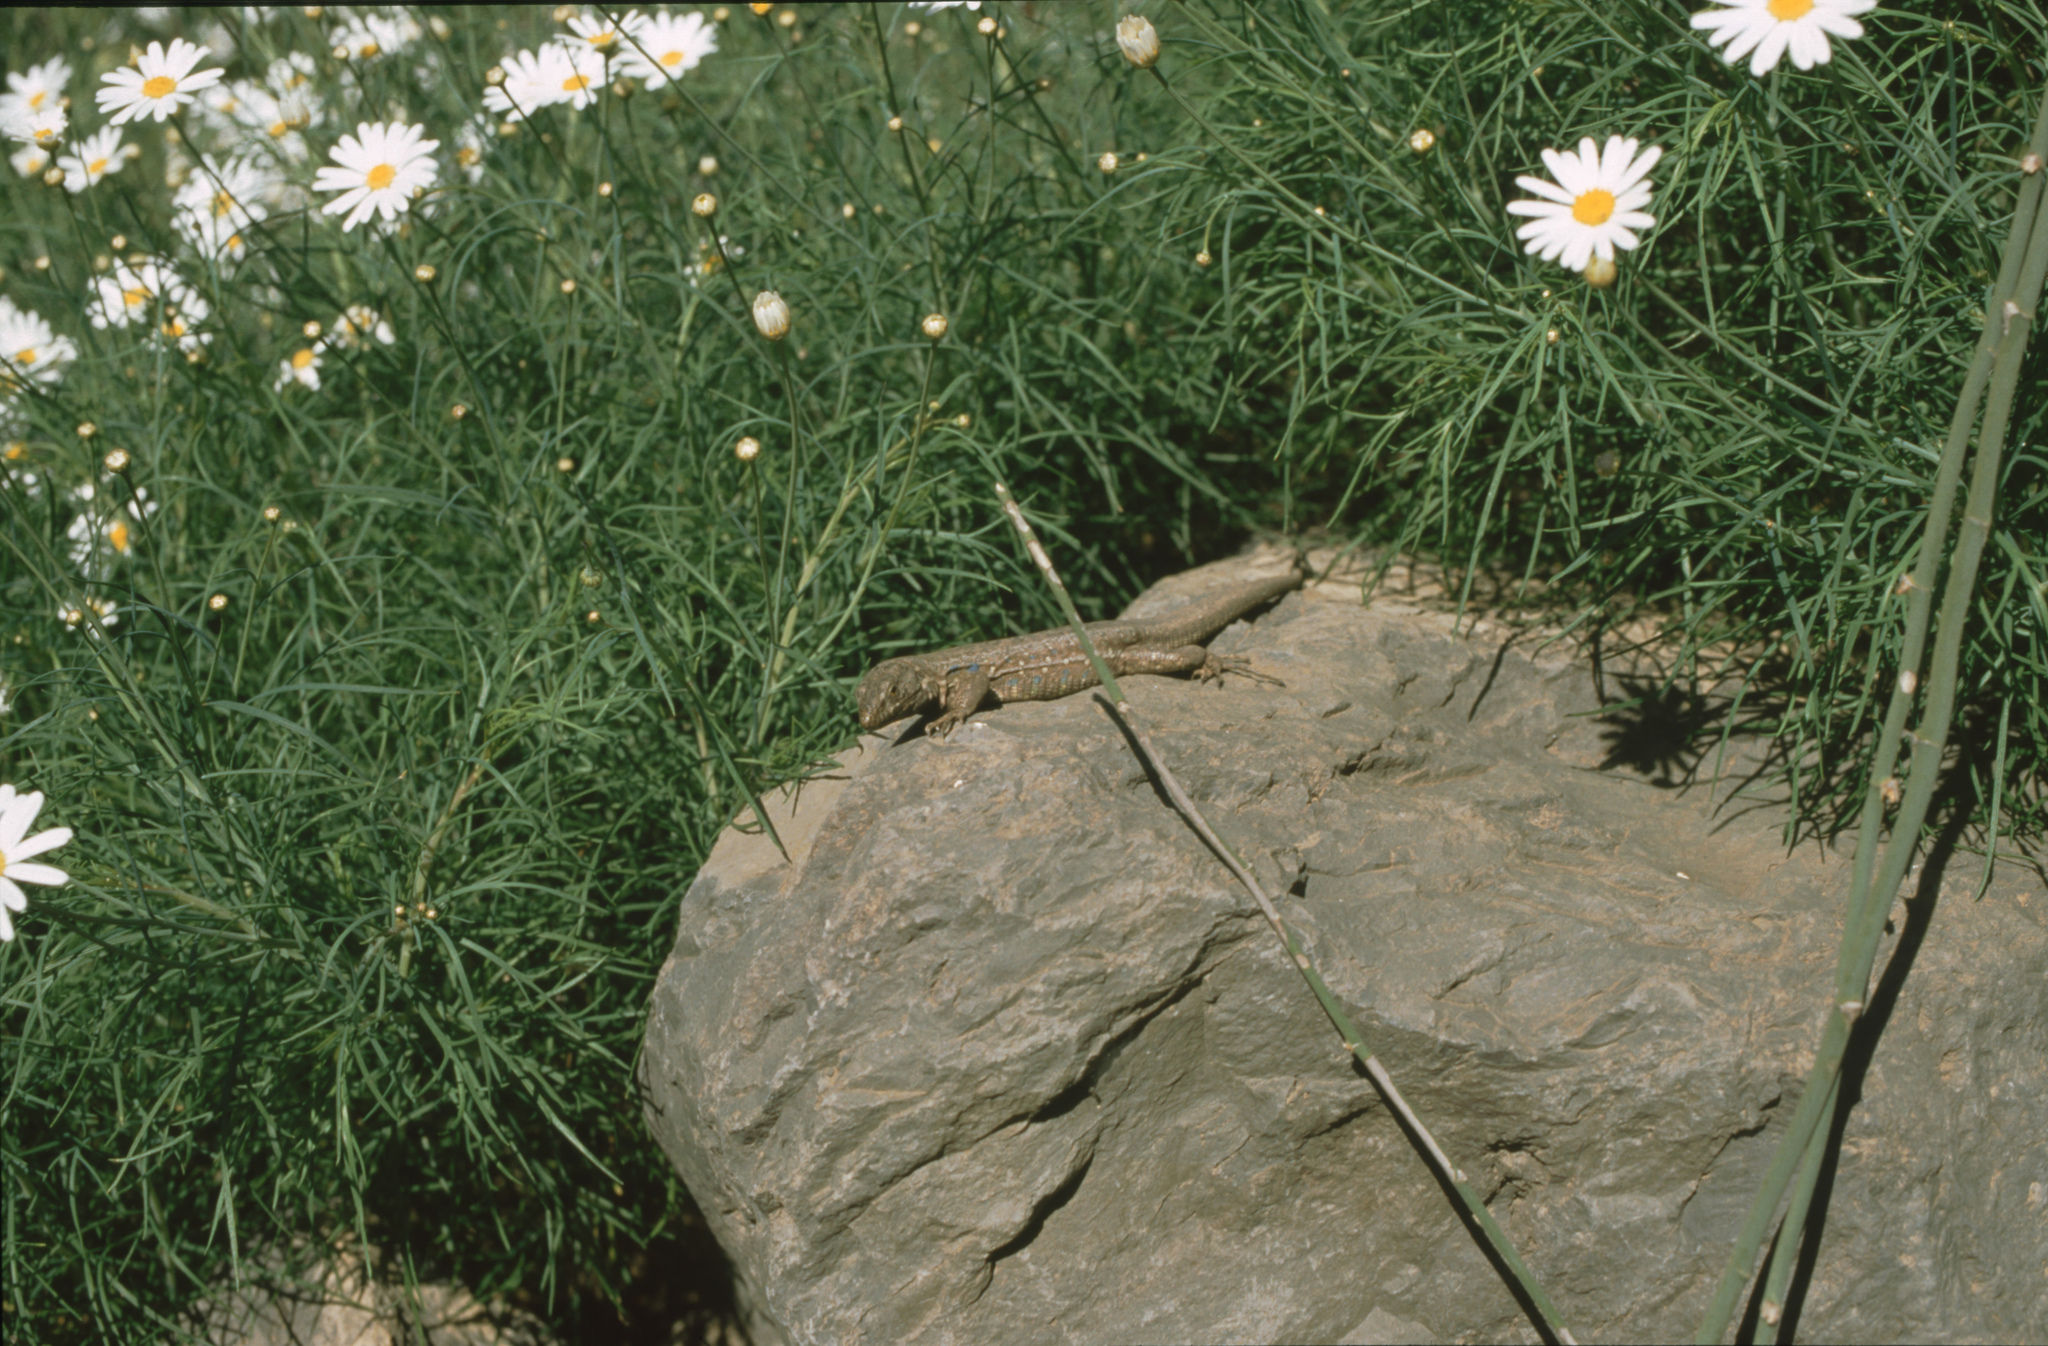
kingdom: Animalia
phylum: Chordata
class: Squamata
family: Lacertidae
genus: Gallotia
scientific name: Gallotia galloti
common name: Gallot's lizard
